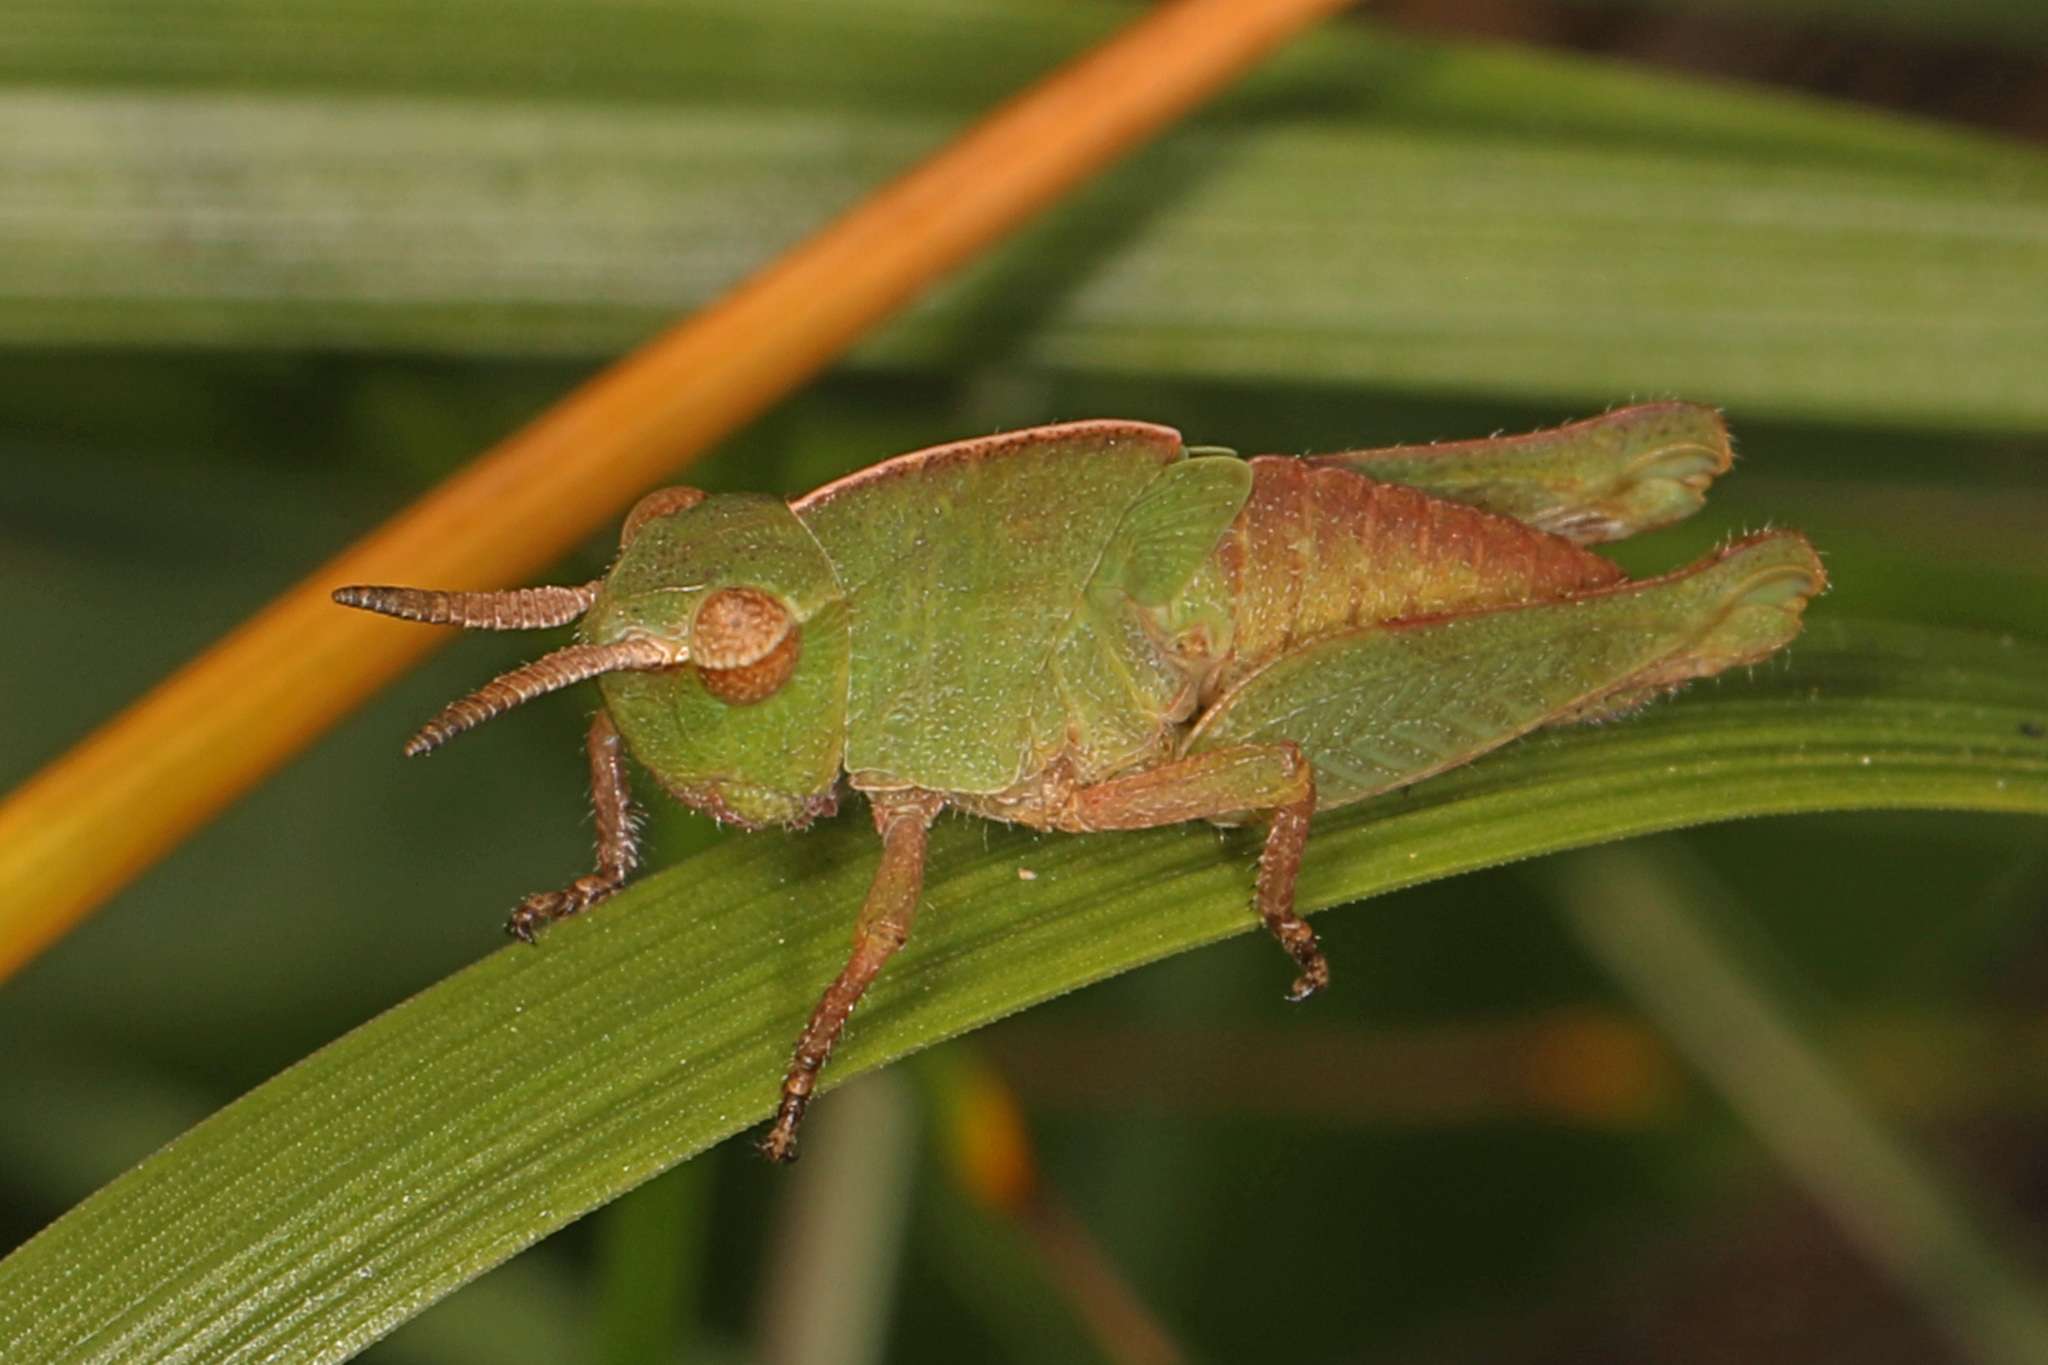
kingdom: Animalia
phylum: Arthropoda
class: Insecta
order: Orthoptera
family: Acrididae
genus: Chortophaga
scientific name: Chortophaga viridifasciata
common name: Green-striped grasshopper
